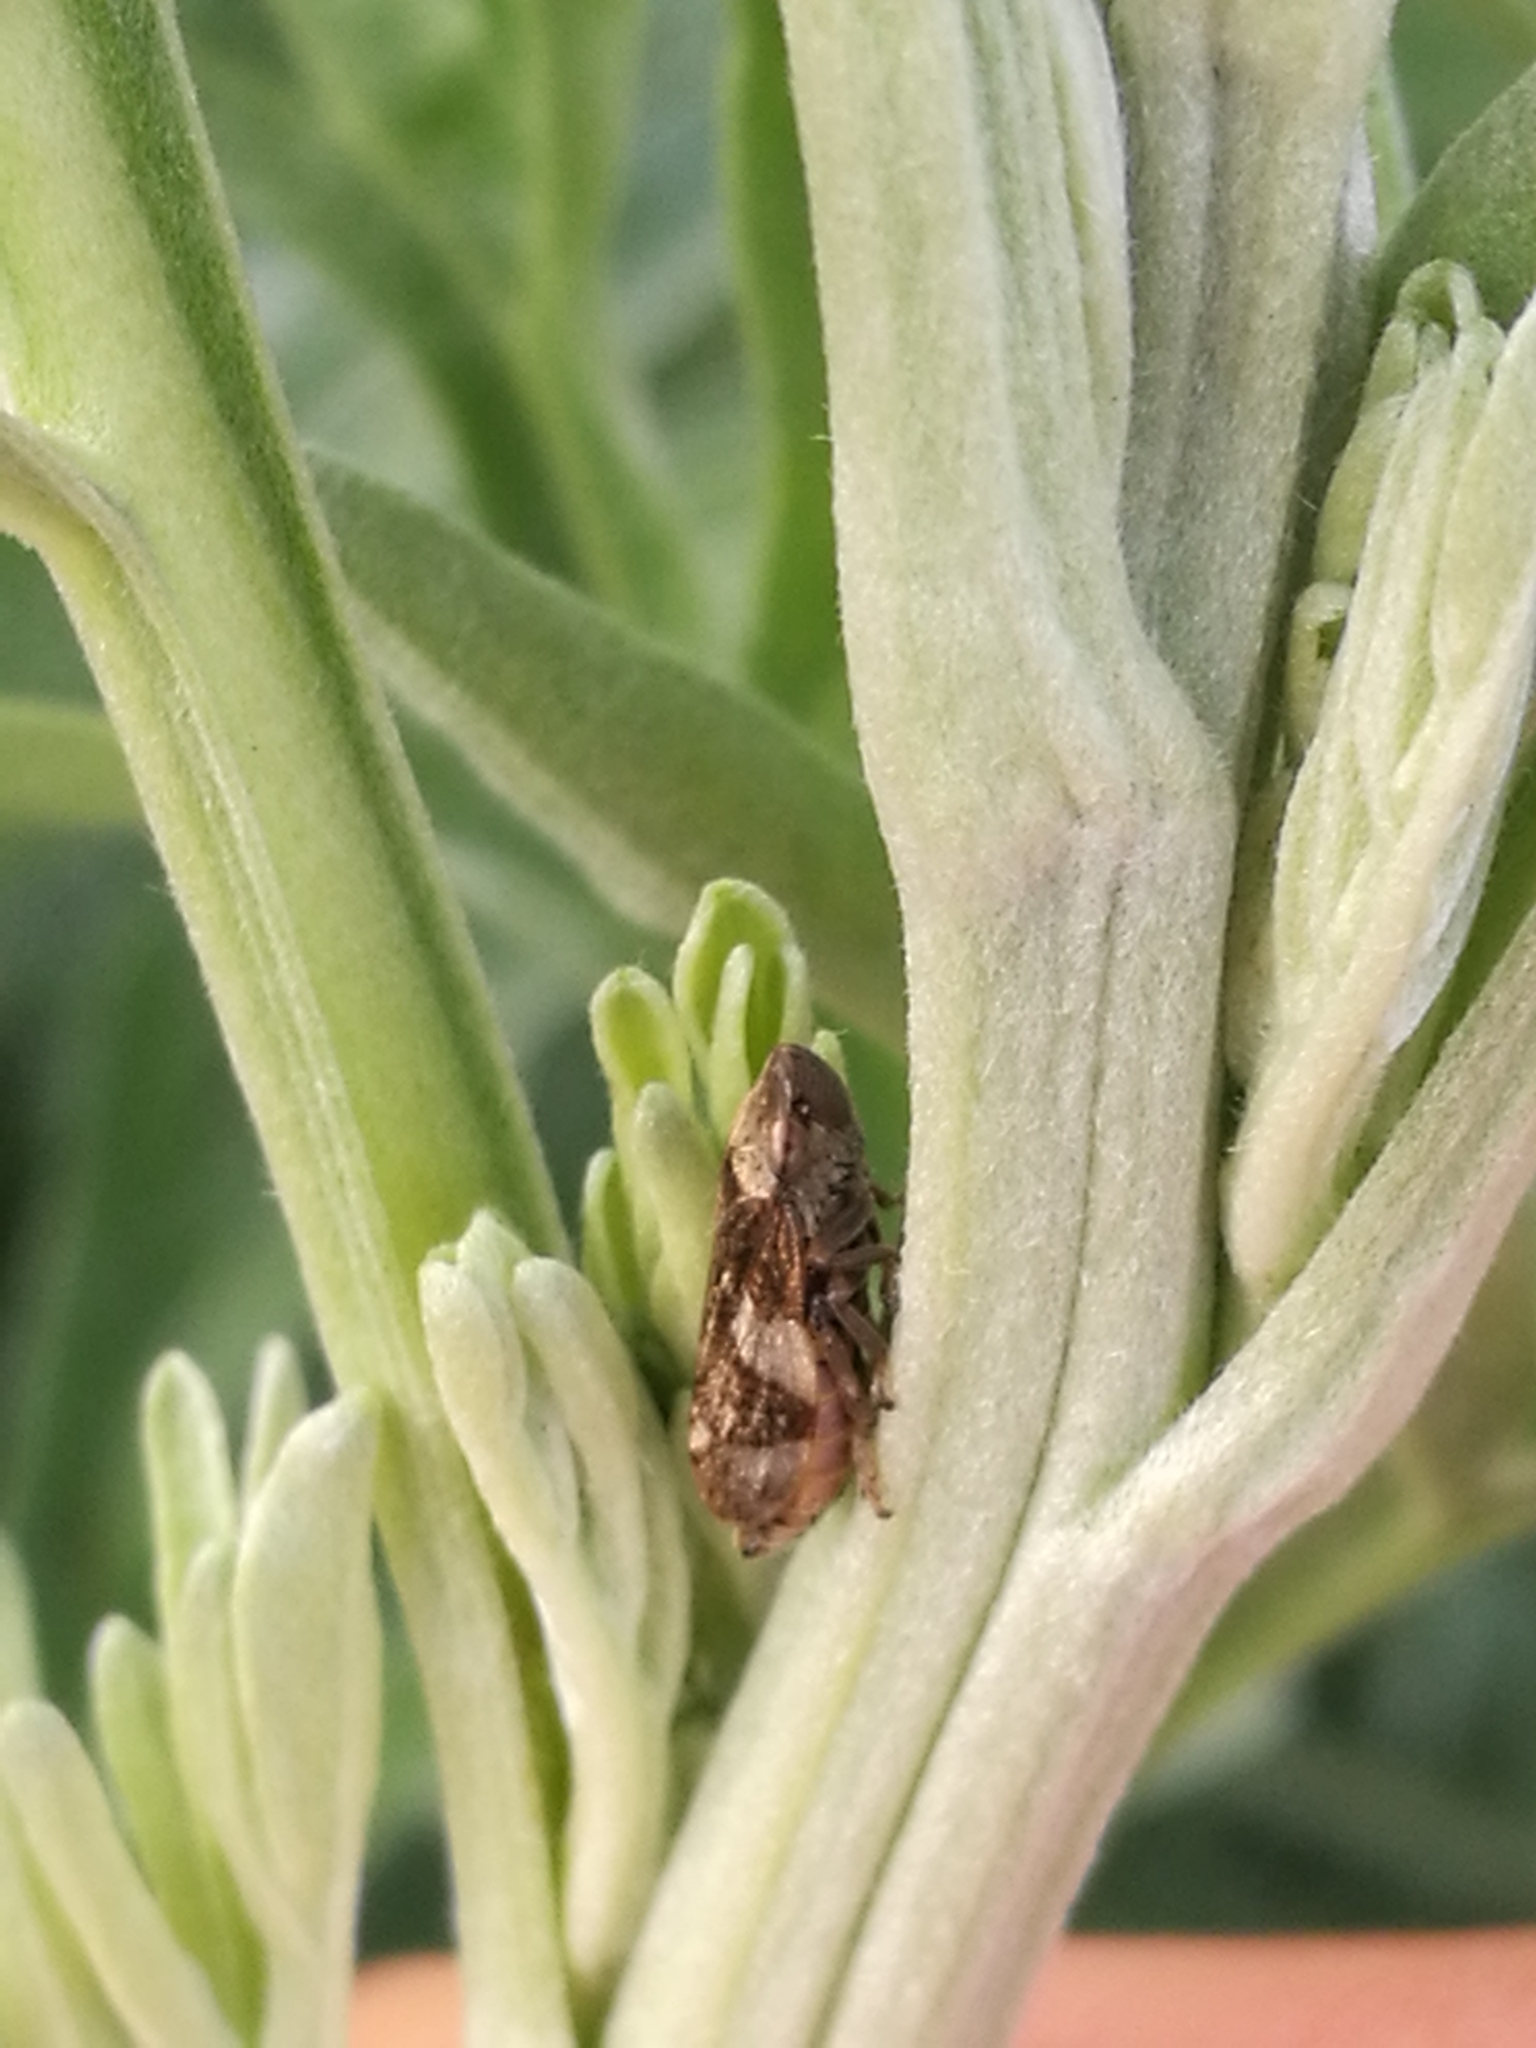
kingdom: Animalia
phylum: Arthropoda
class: Insecta
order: Hemiptera
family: Aphrophoridae
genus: Philaenus
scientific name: Philaenus spumarius
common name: Meadow spittlebug
